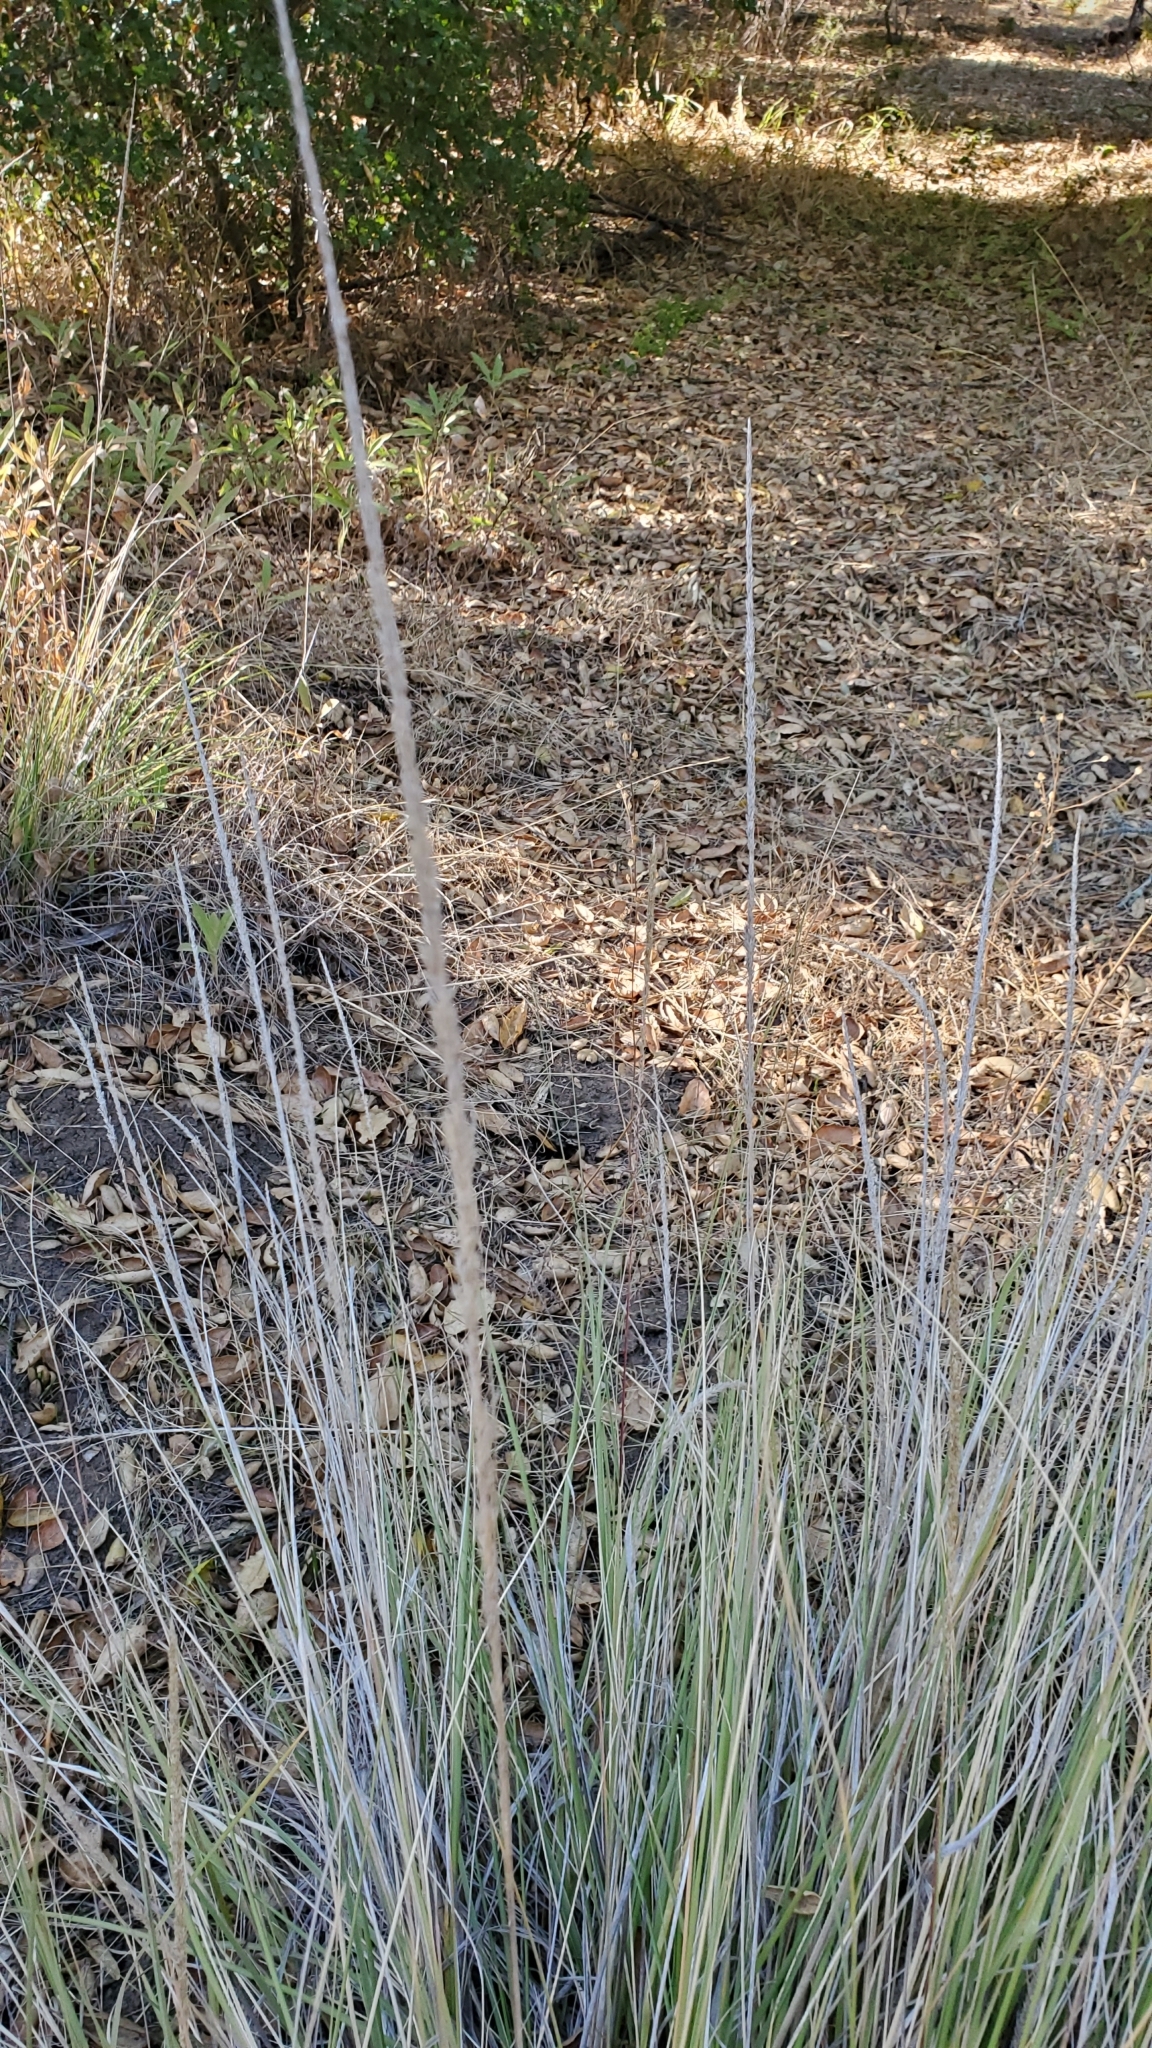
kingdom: Plantae
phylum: Tracheophyta
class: Liliopsida
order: Poales
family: Poaceae
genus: Muhlenbergia
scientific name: Muhlenbergia rigens
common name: Deer grass
